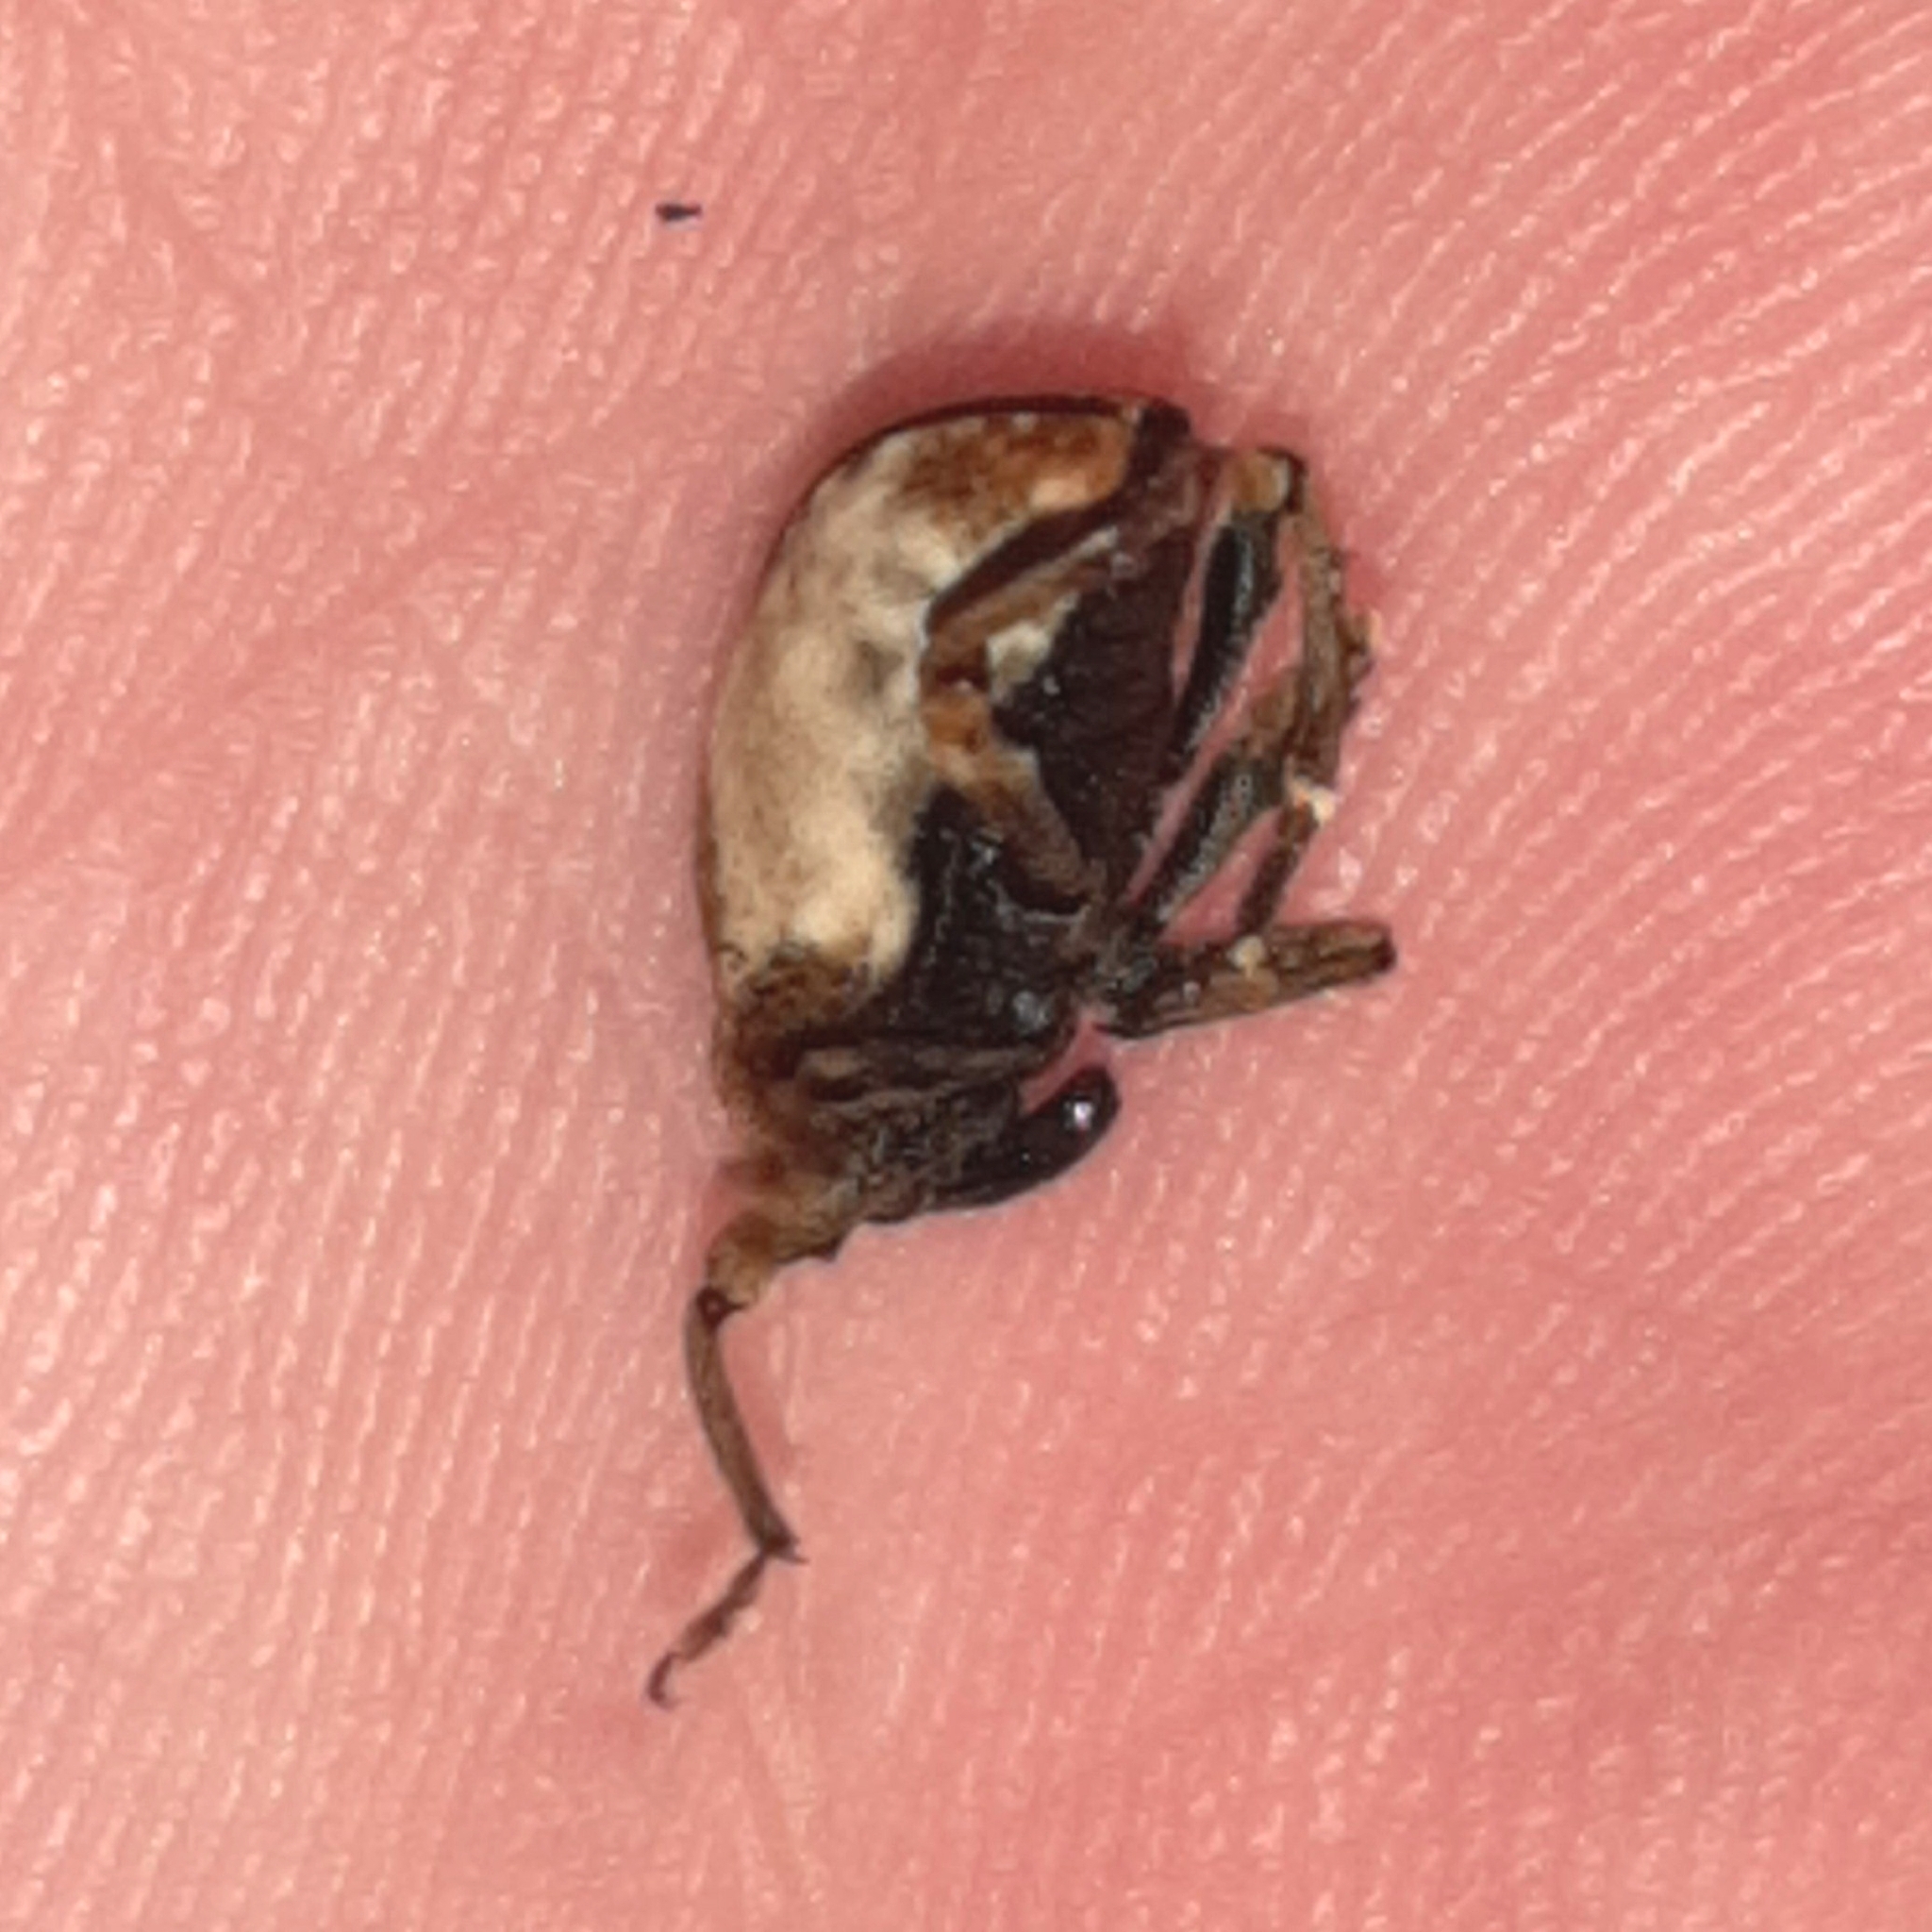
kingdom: Animalia
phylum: Arthropoda
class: Insecta
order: Coleoptera
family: Curculionidae
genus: Cryptorrhynchus
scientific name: Cryptorrhynchus melastomae
